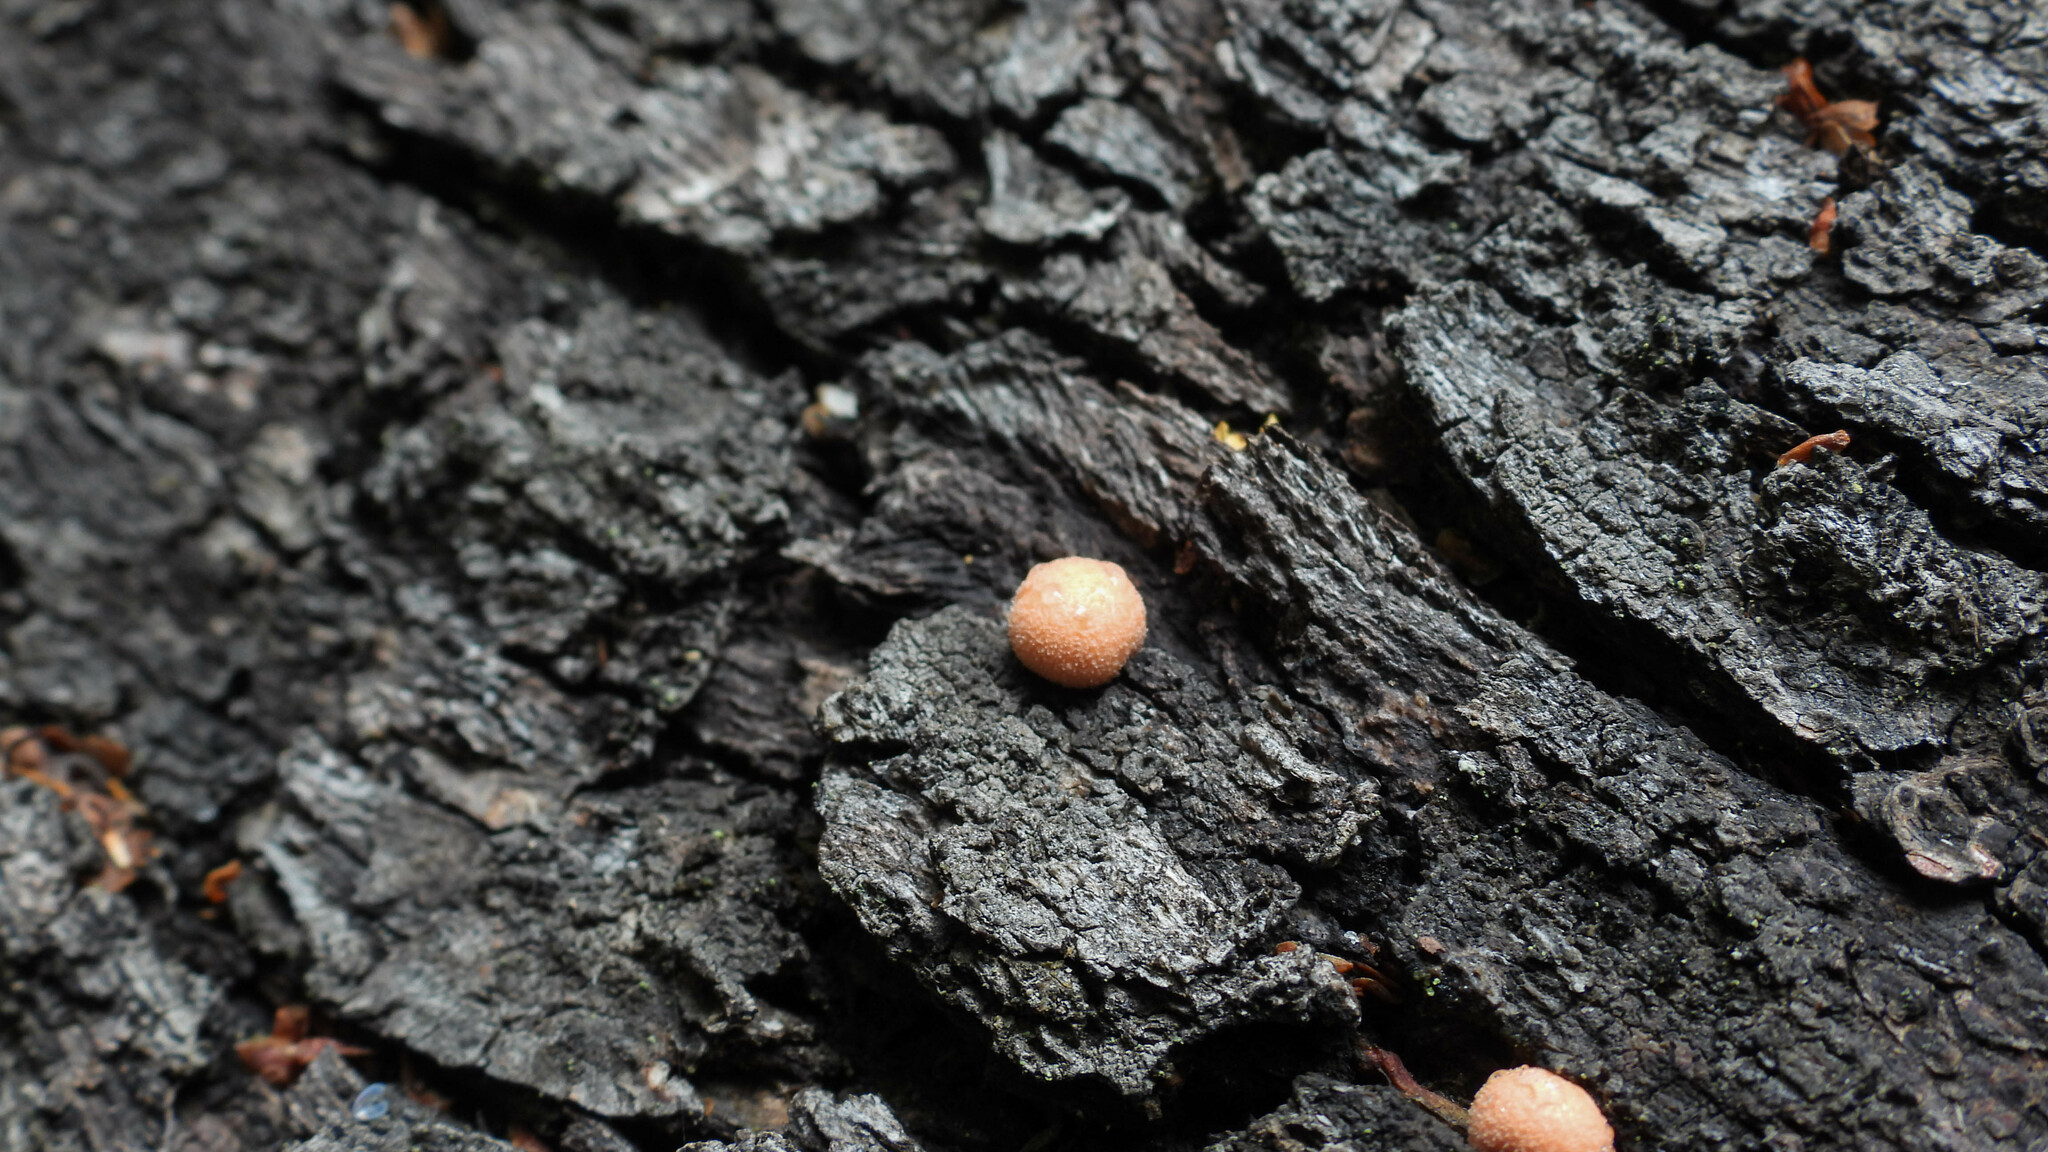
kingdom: Protozoa
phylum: Mycetozoa
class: Myxomycetes
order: Cribrariales
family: Tubiferaceae
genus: Lycogala
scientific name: Lycogala epidendrum
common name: Wolf's milk
